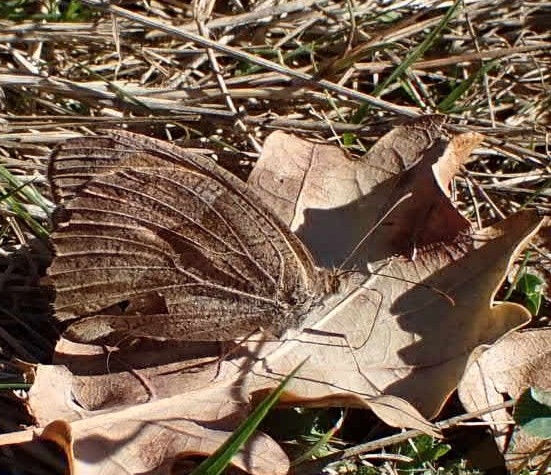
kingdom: Animalia
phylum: Arthropoda
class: Insecta
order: Lepidoptera
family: Nymphalidae
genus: Maniola
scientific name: Maniola jurtina
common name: Meadow brown
